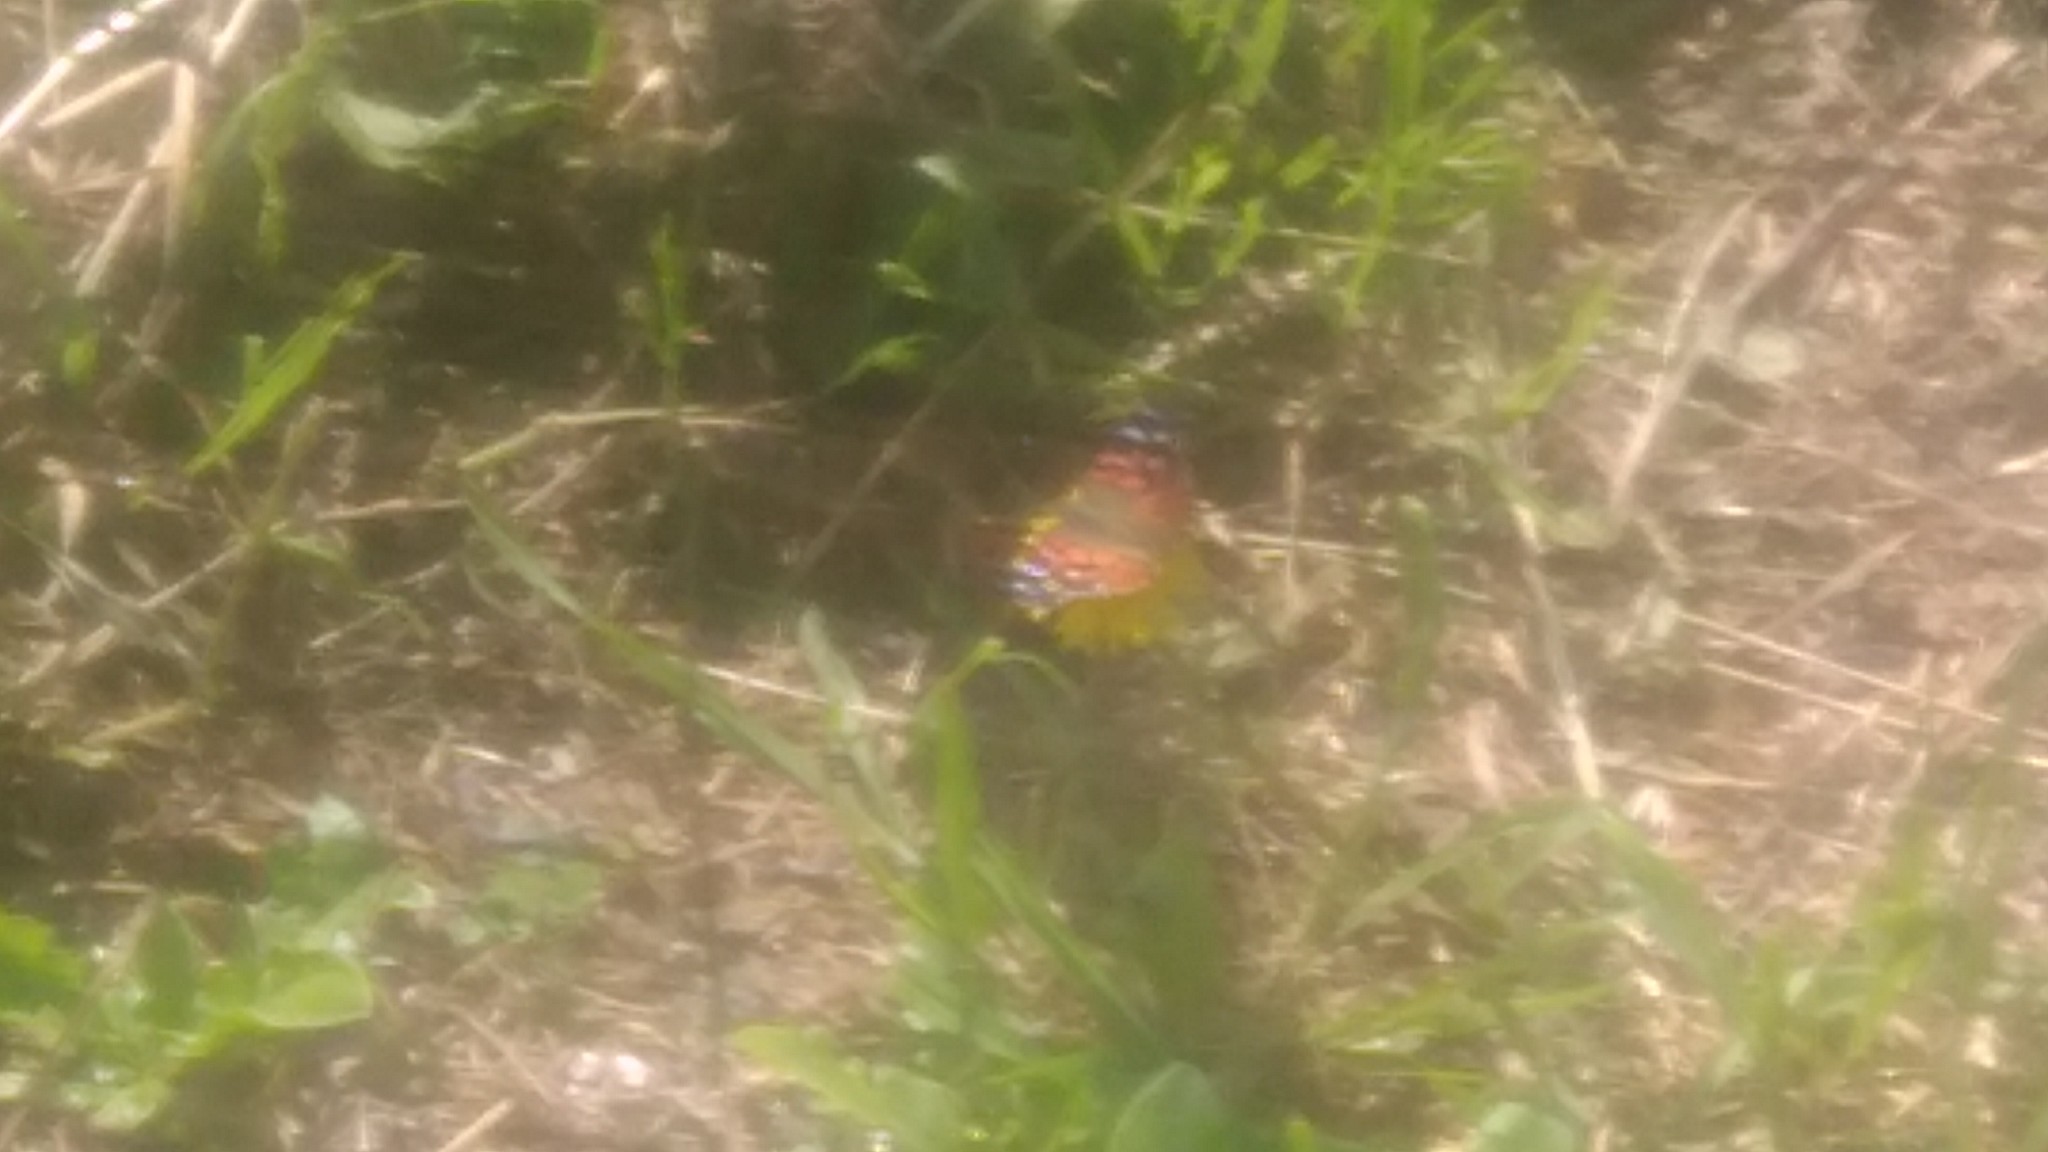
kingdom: Animalia
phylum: Arthropoda
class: Insecta
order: Lepidoptera
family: Nymphalidae
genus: Vanessa
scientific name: Vanessa braziliensis
